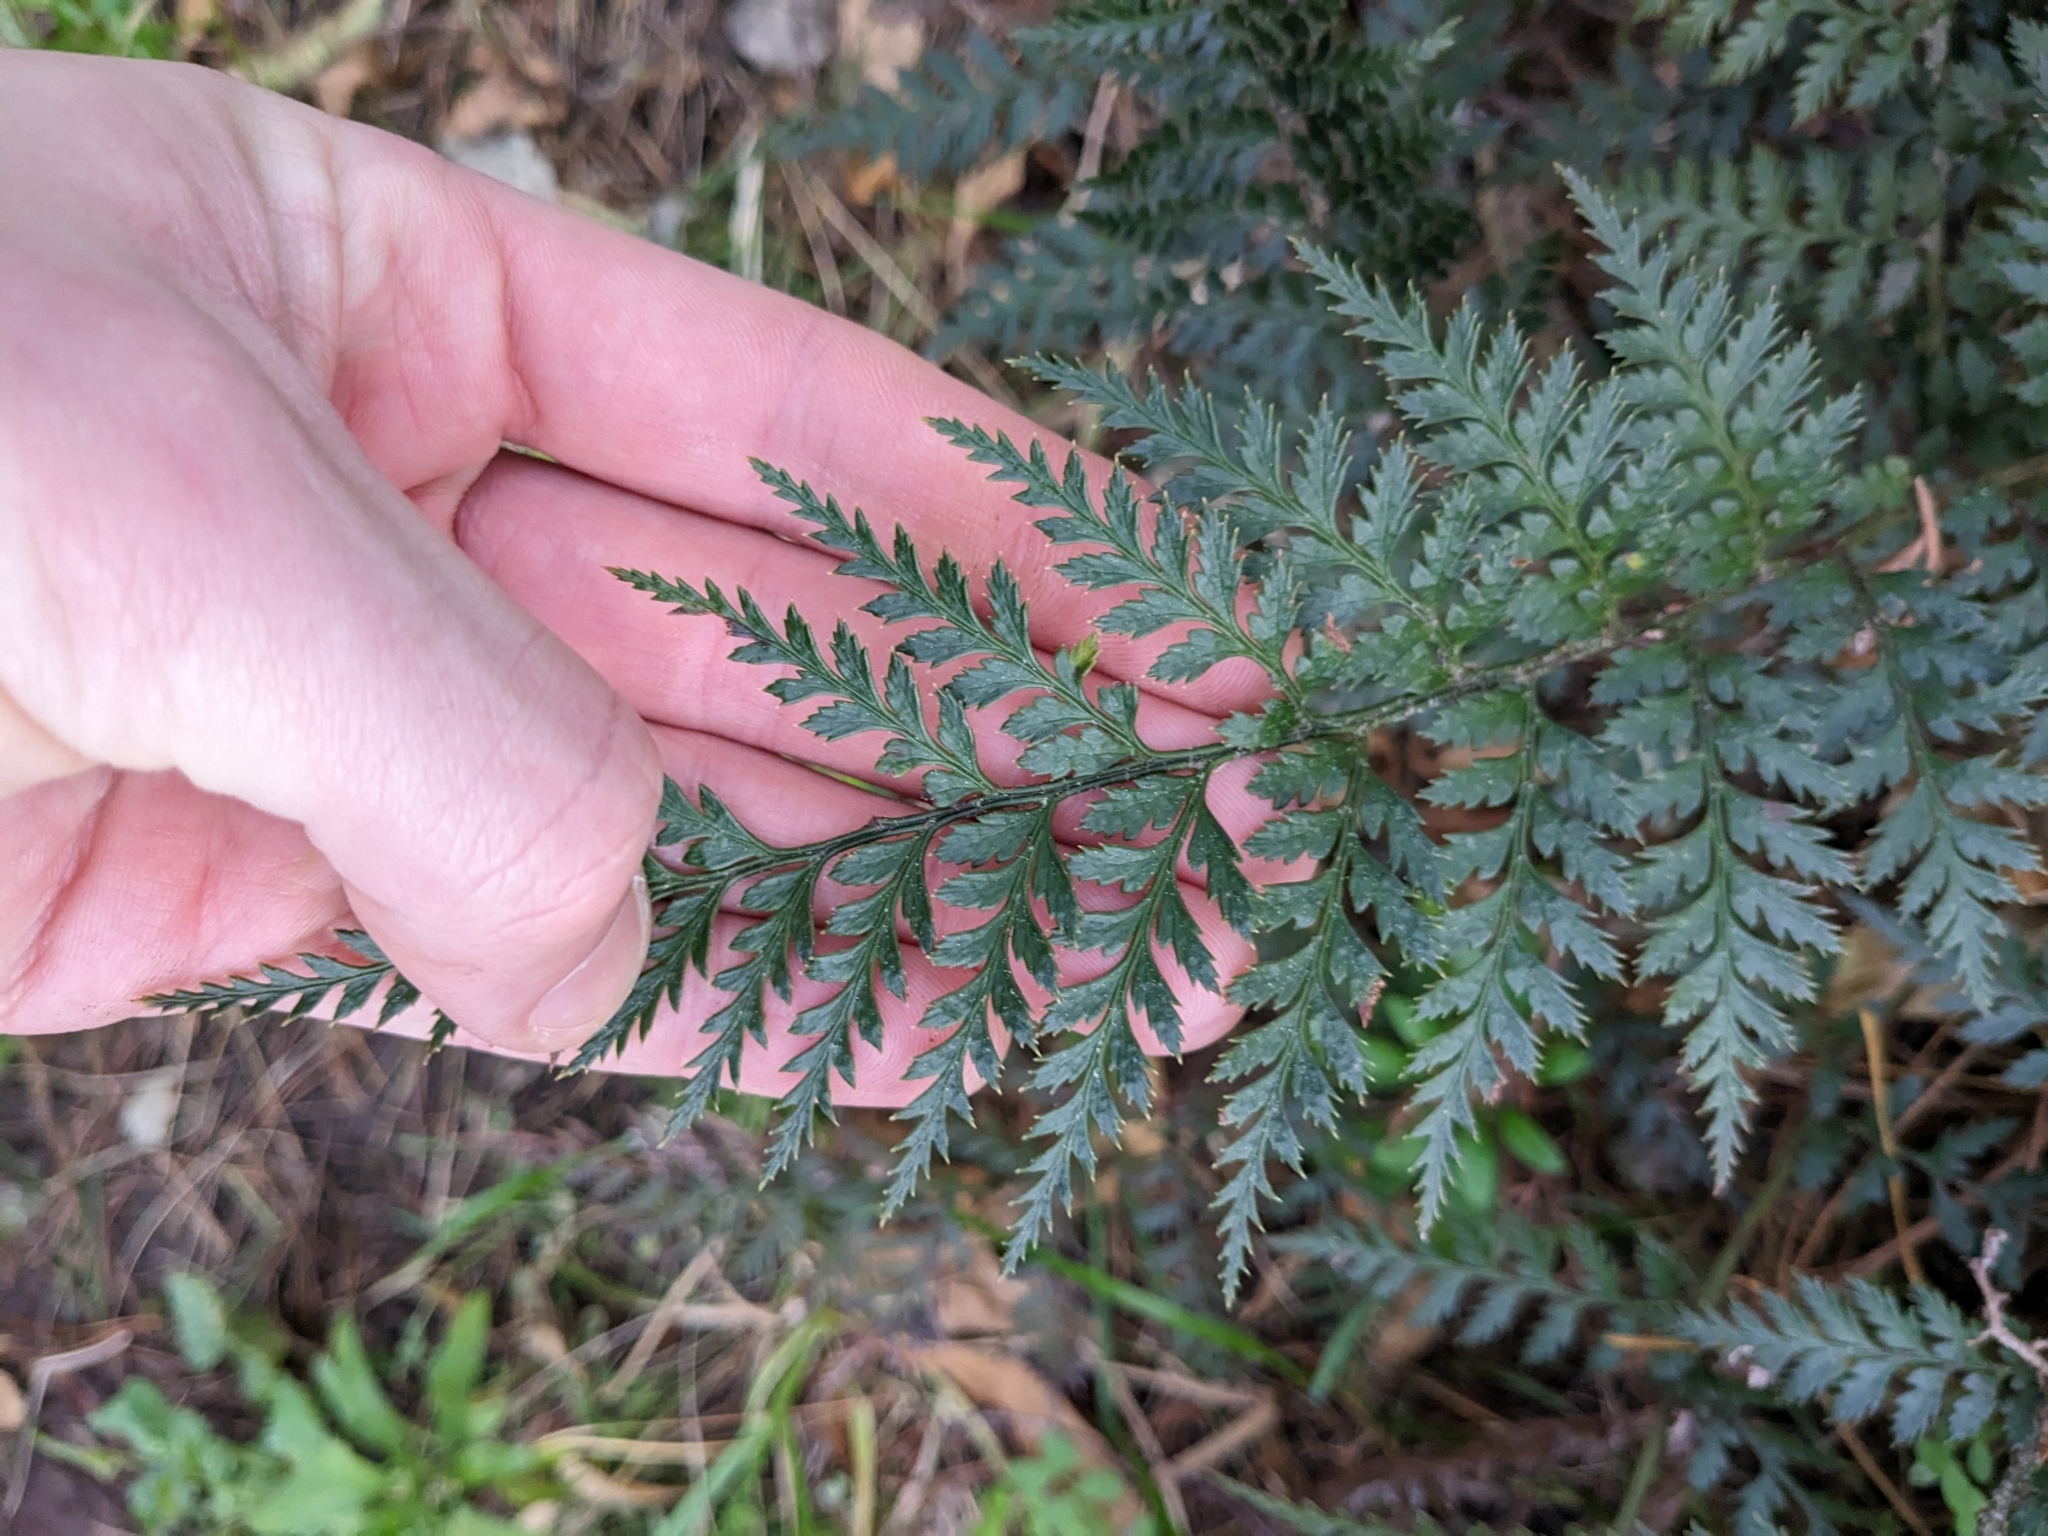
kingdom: Plantae
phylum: Tracheophyta
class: Polypodiopsida
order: Polypodiales
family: Dryopteridaceae
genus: Polystichum
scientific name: Polystichum oculatum
